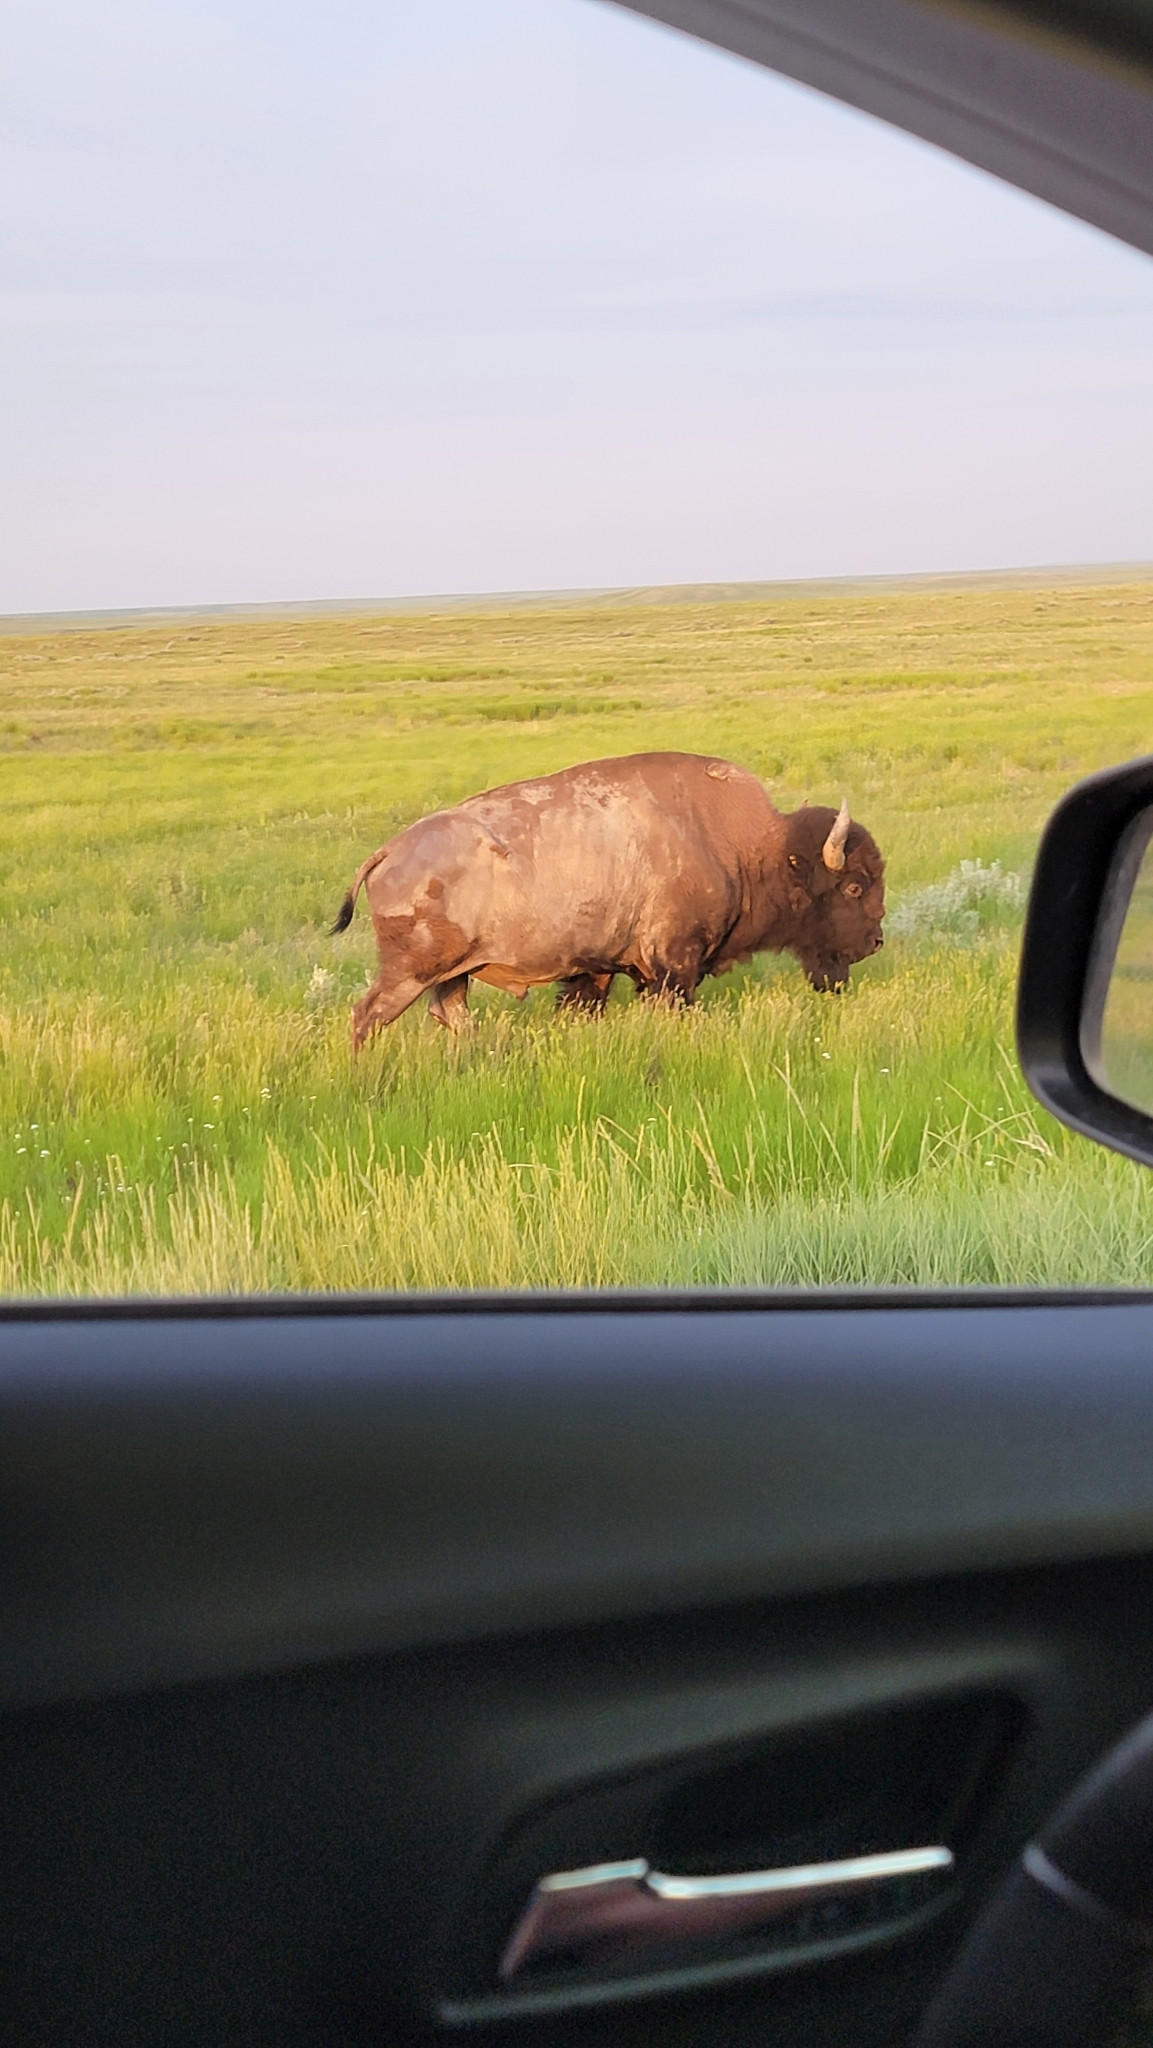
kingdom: Animalia
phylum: Chordata
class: Mammalia
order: Artiodactyla
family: Bovidae
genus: Bison
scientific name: Bison bison
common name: American bison
